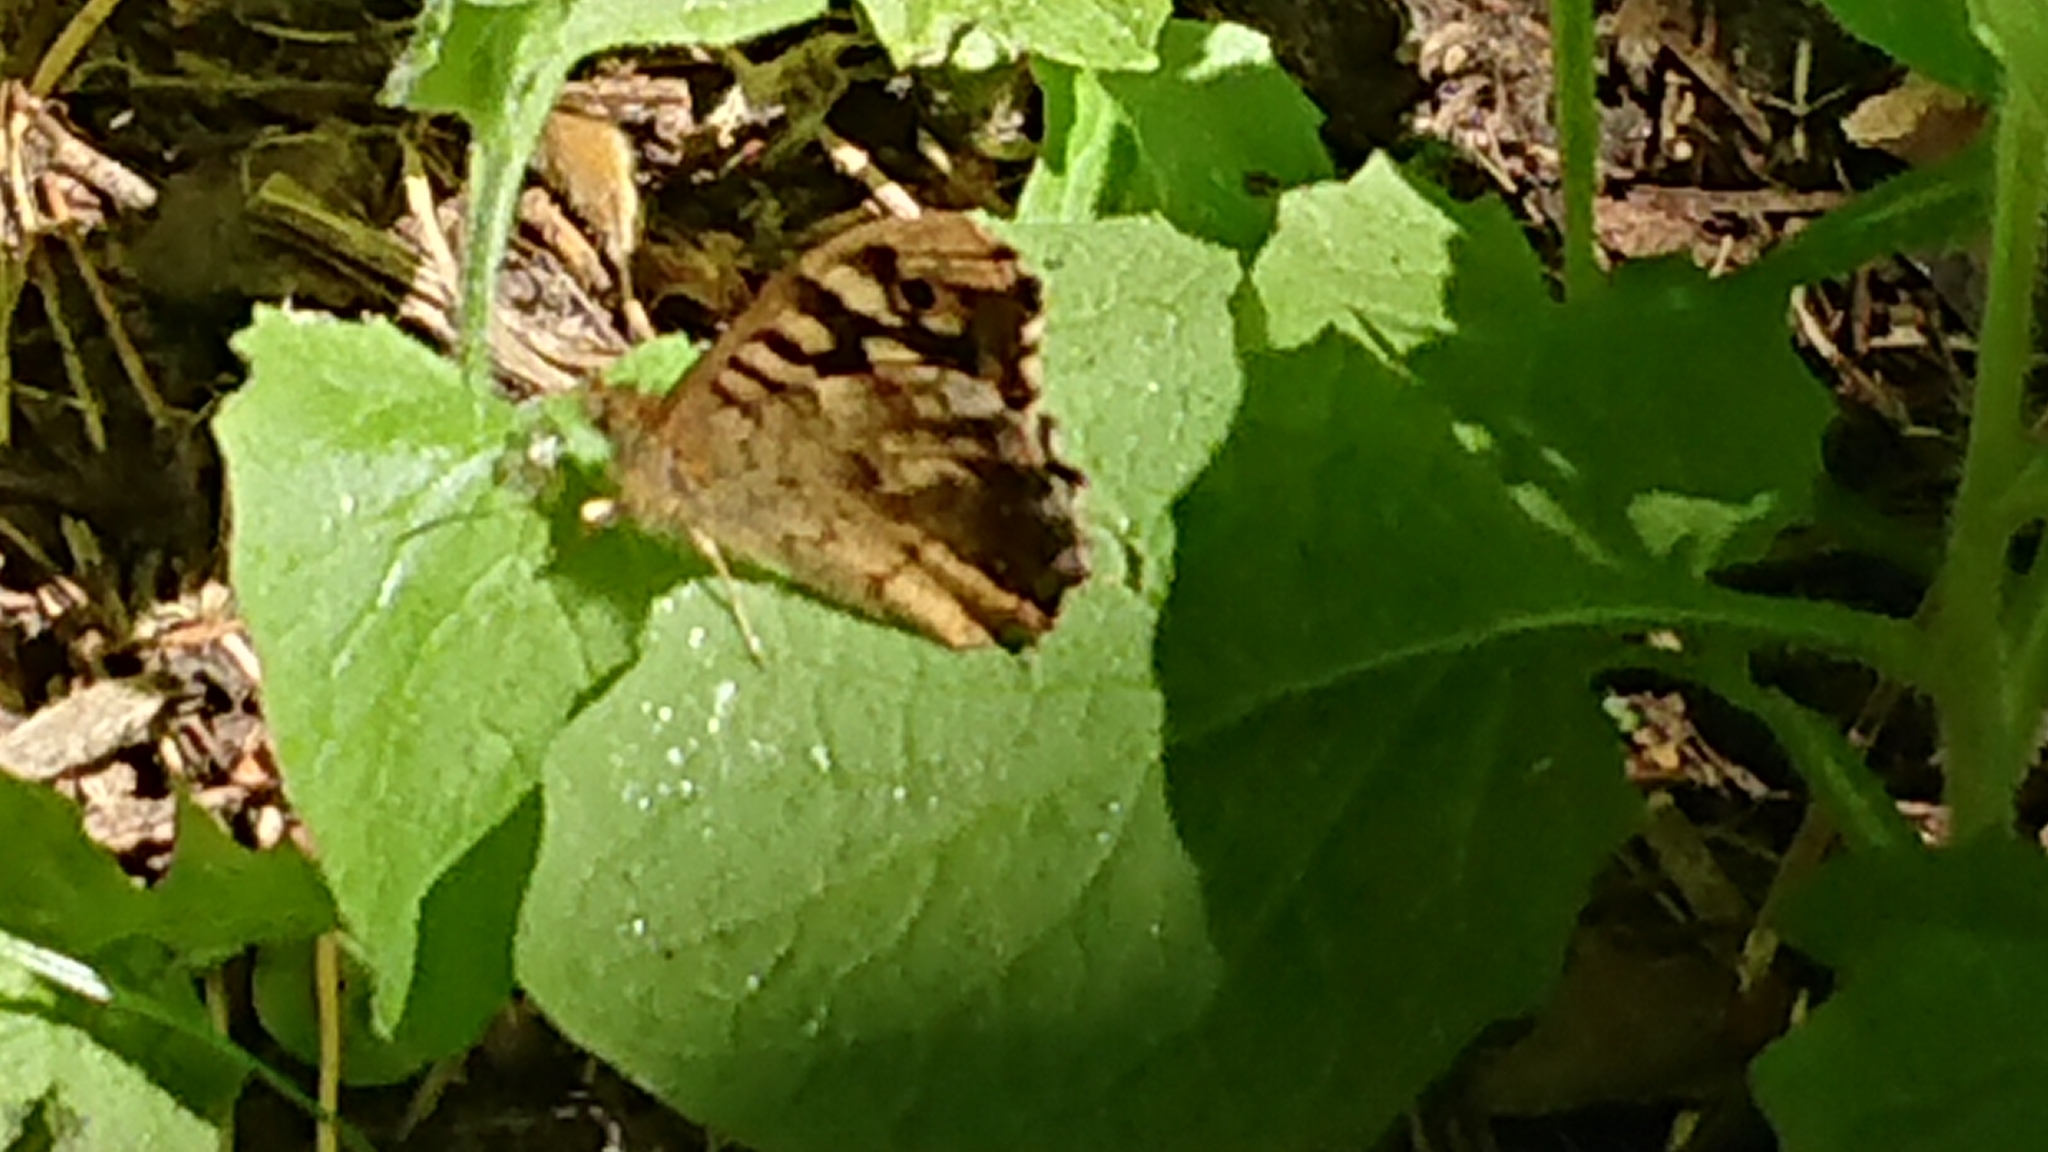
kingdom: Animalia
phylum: Arthropoda
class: Insecta
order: Lepidoptera
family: Nymphalidae
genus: Pararge
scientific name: Pararge aegeria
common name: Speckled wood
